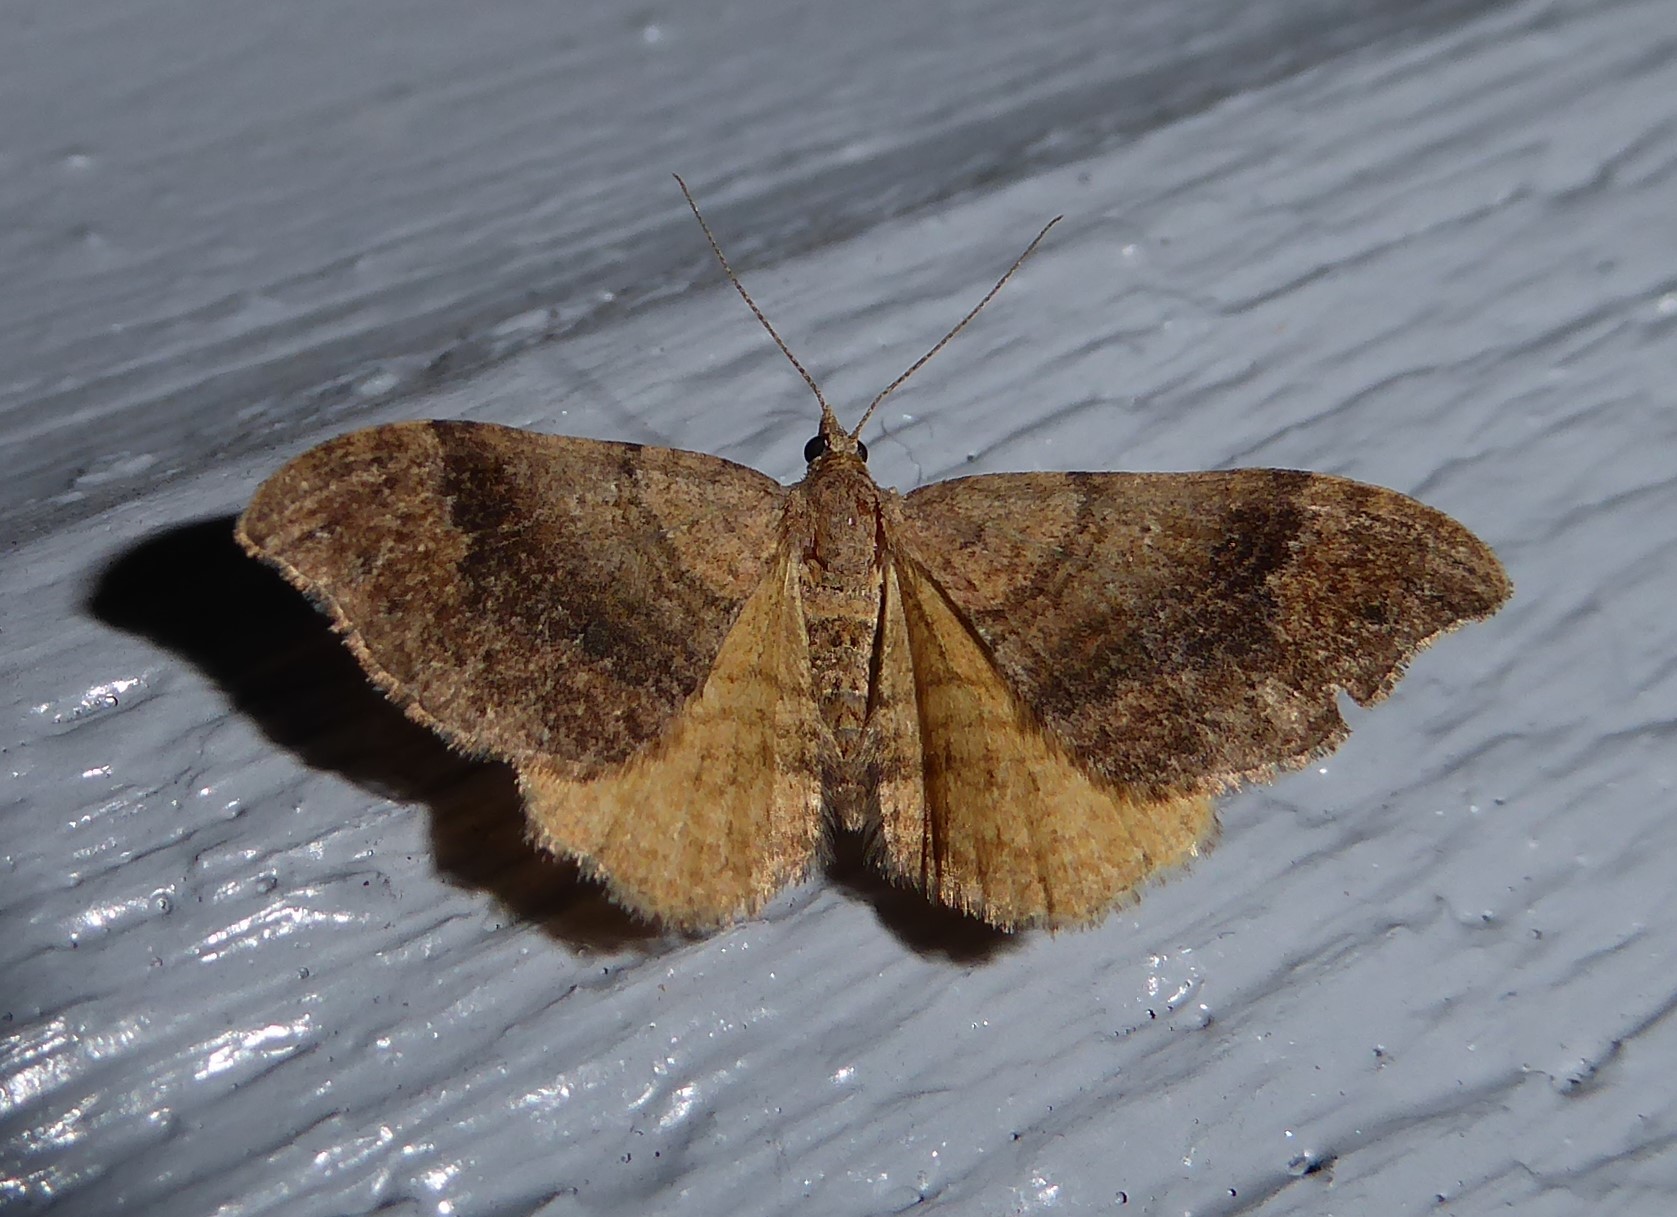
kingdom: Animalia
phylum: Arthropoda
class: Insecta
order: Lepidoptera
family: Geometridae
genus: Homodotis
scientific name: Homodotis megaspilata
